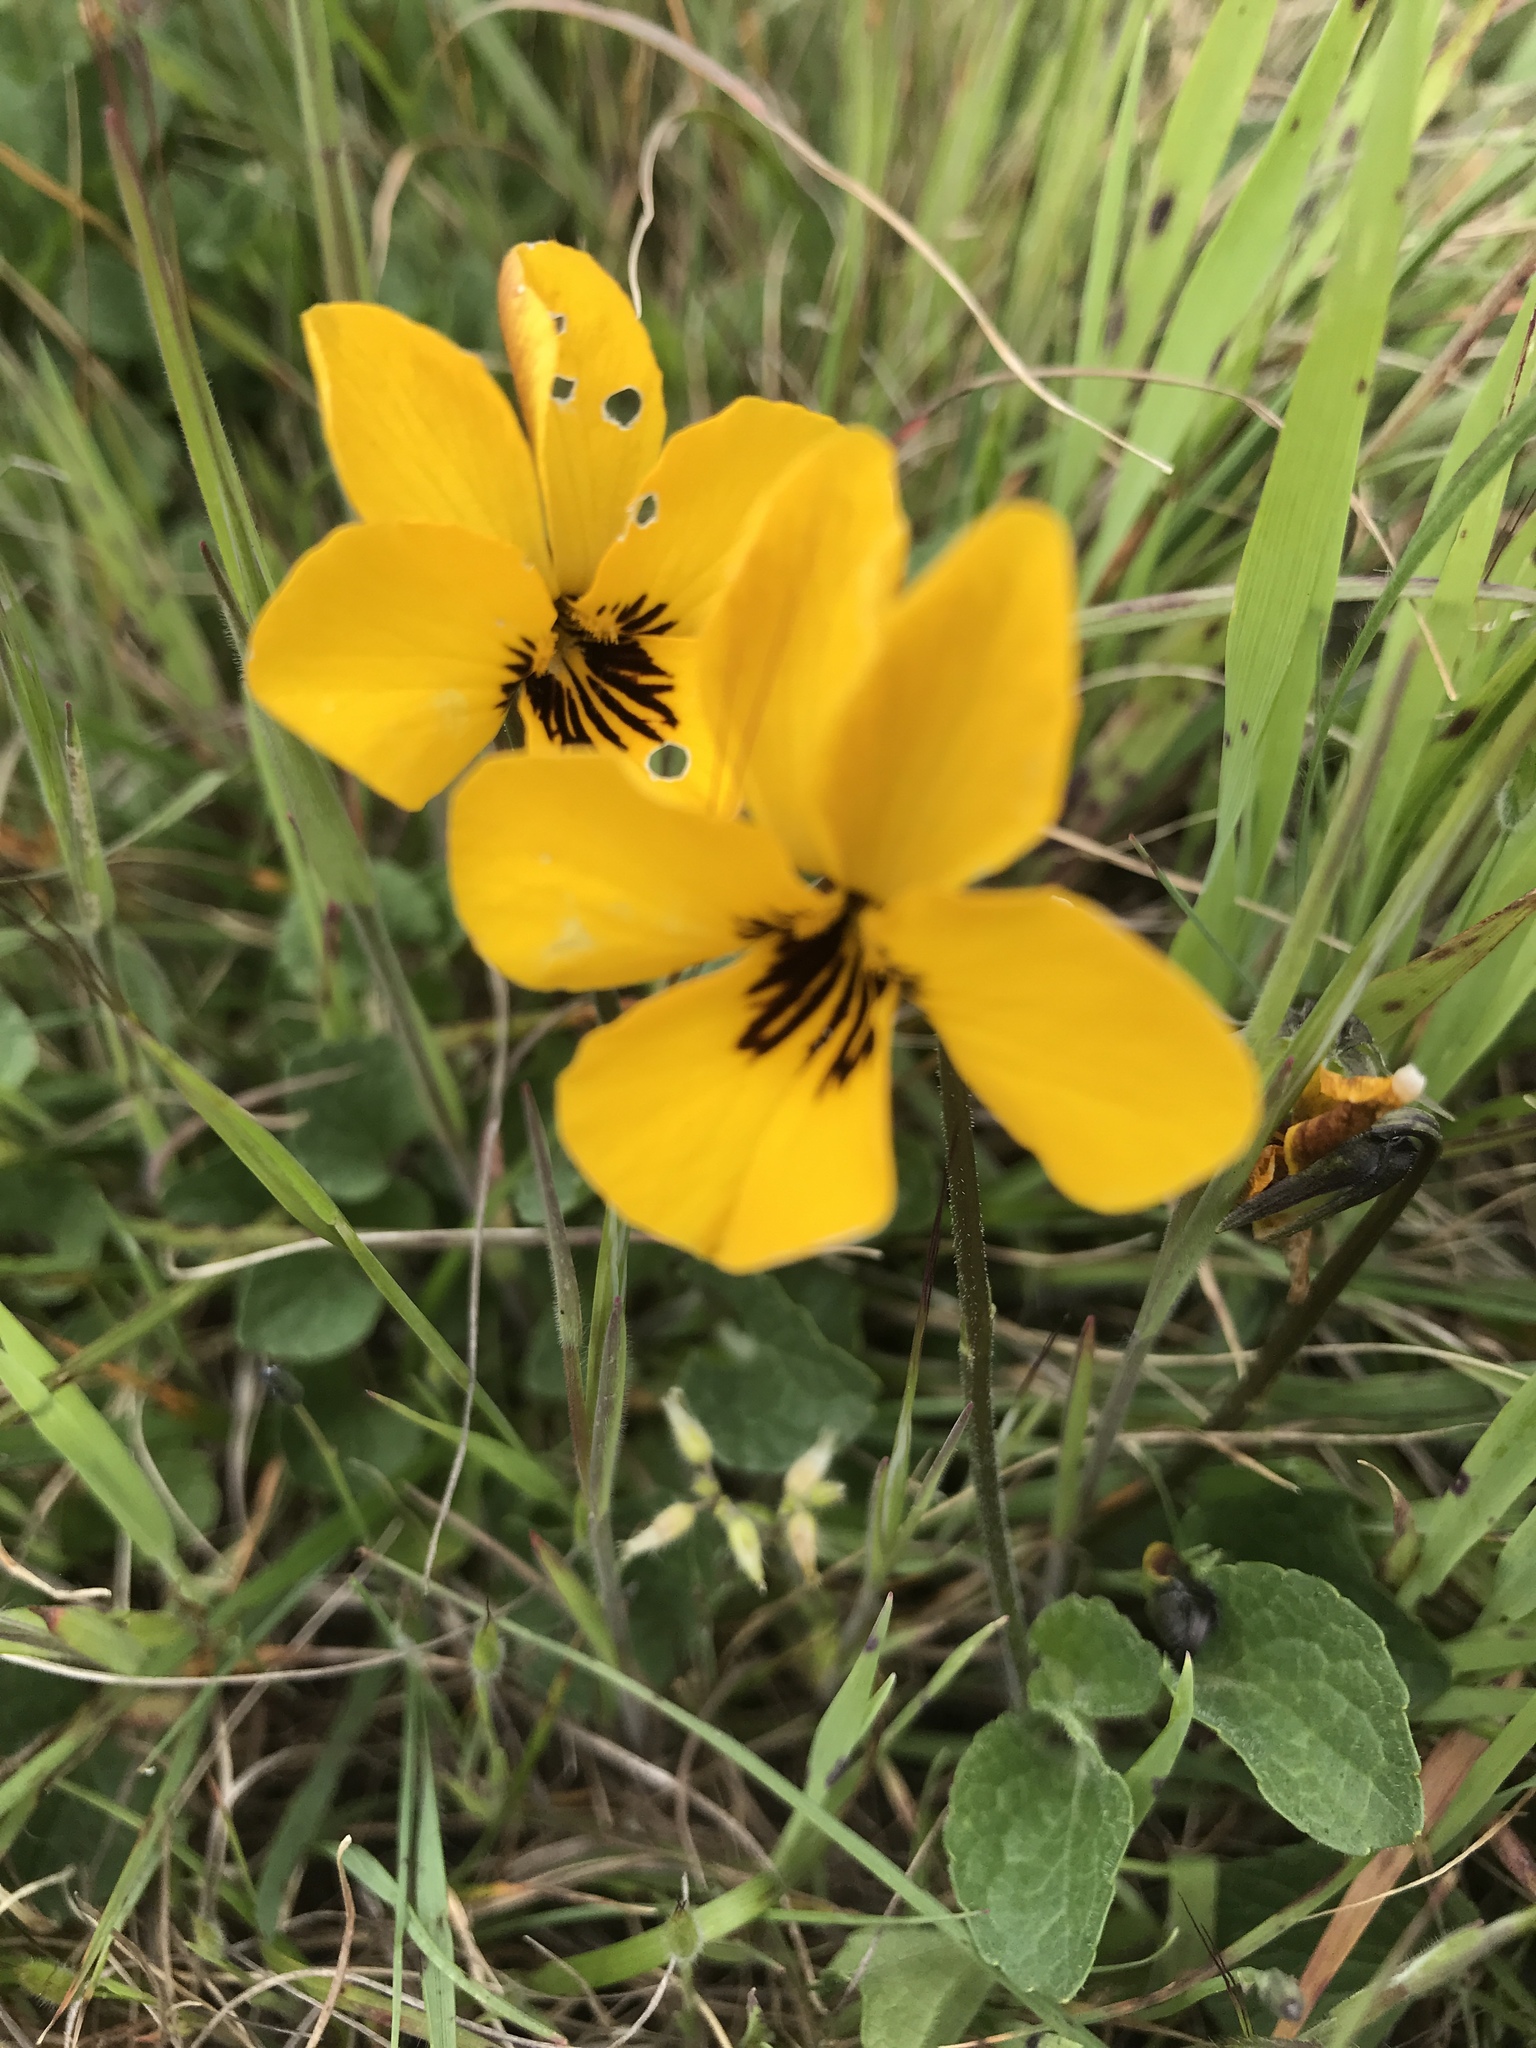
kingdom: Plantae
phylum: Tracheophyta
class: Magnoliopsida
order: Malpighiales
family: Violaceae
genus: Viola
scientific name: Viola pedunculata
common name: California golden violet
